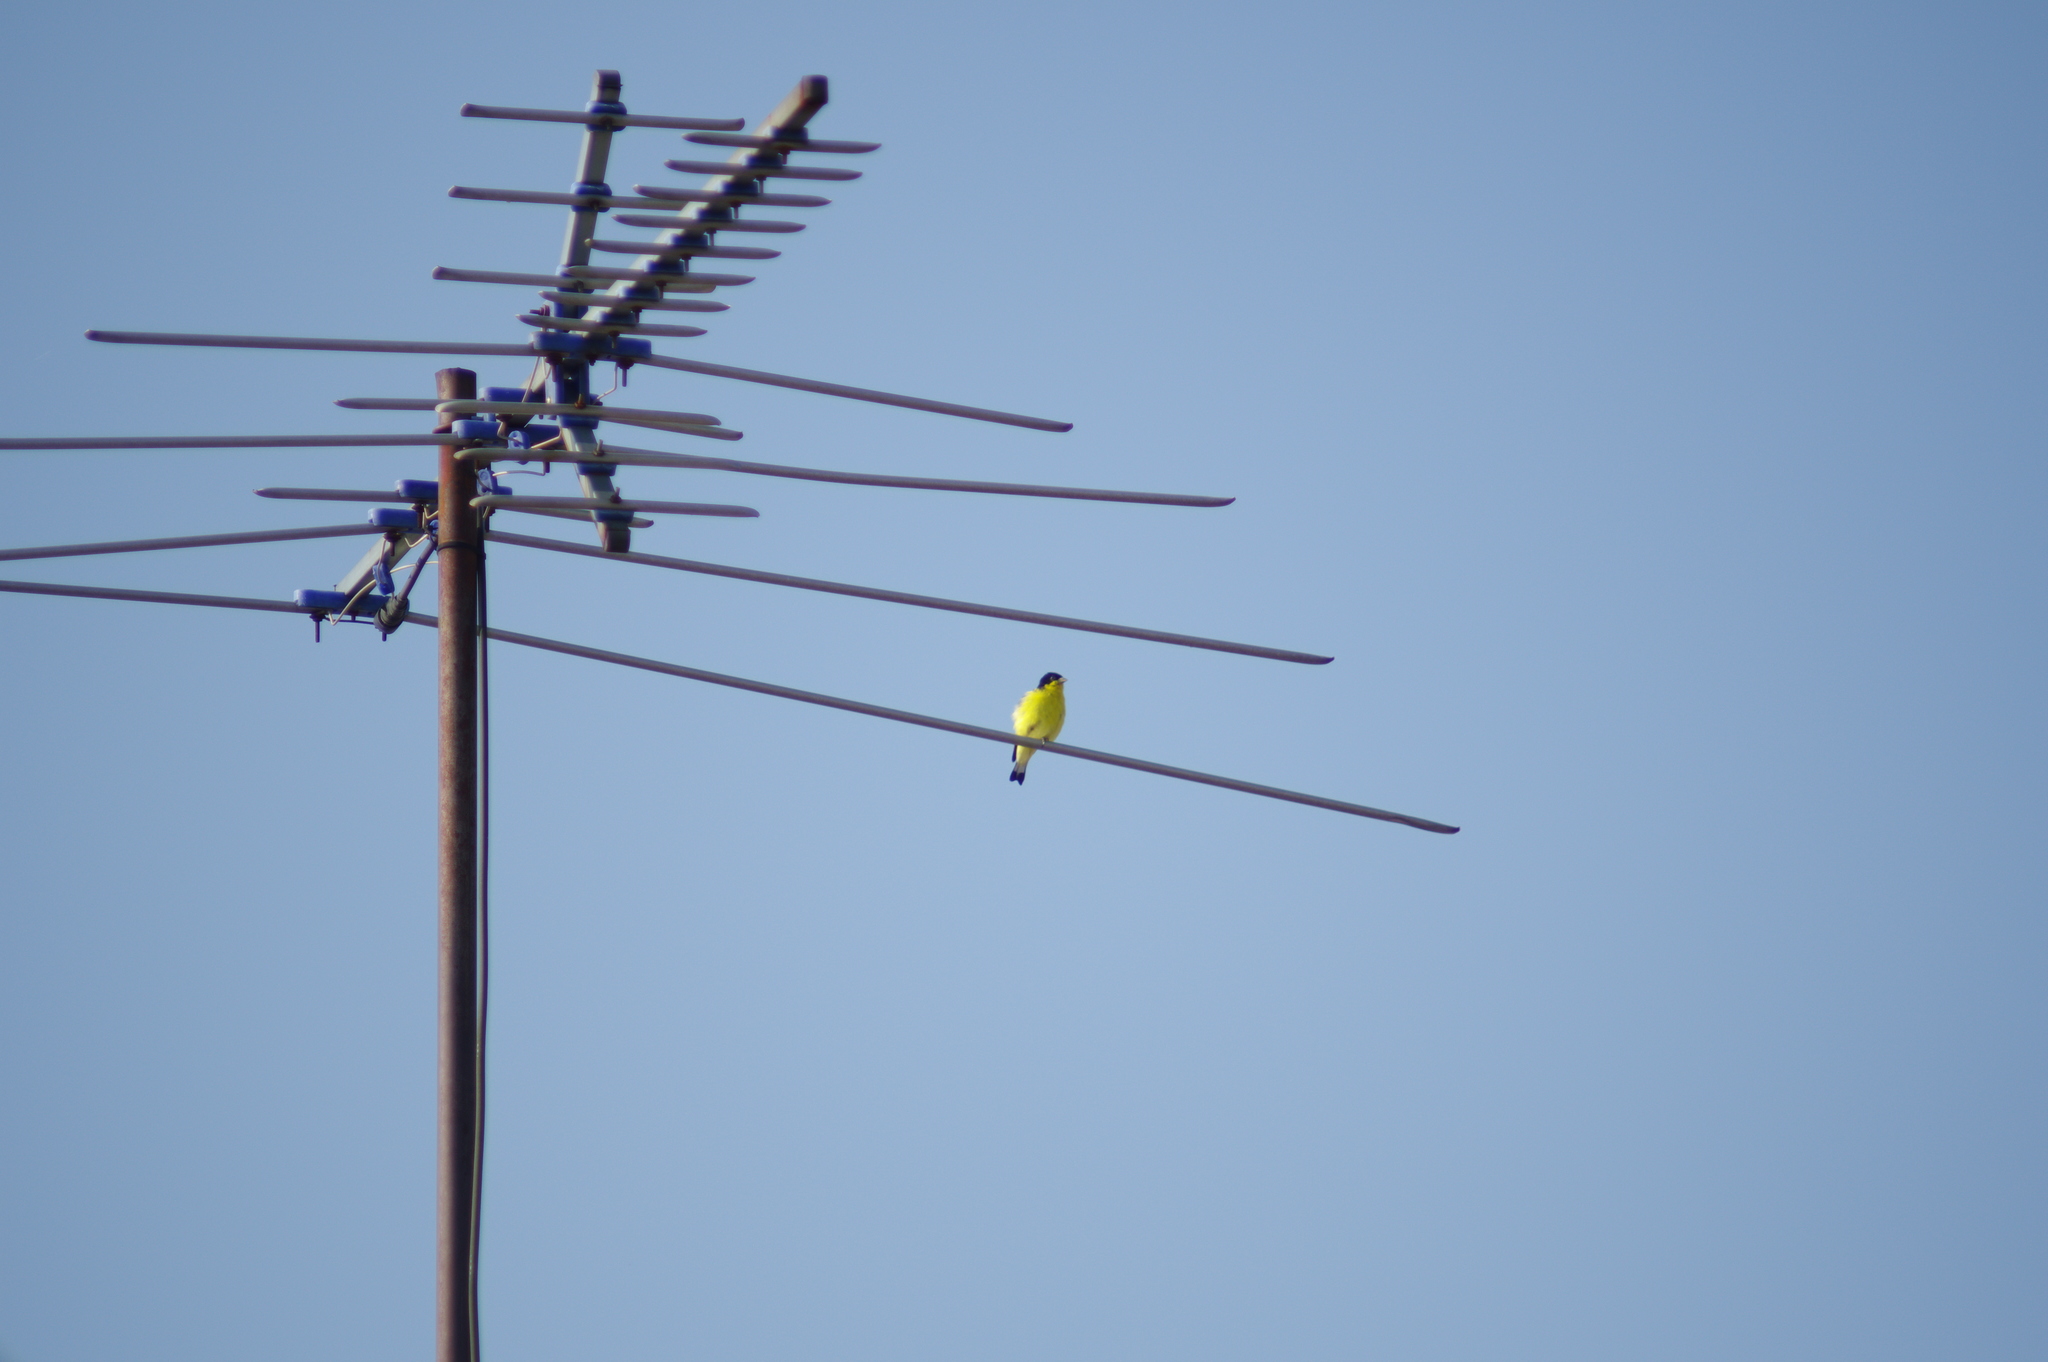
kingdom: Animalia
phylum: Chordata
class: Aves
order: Passeriformes
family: Fringillidae
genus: Spinus
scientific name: Spinus psaltria
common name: Lesser goldfinch
